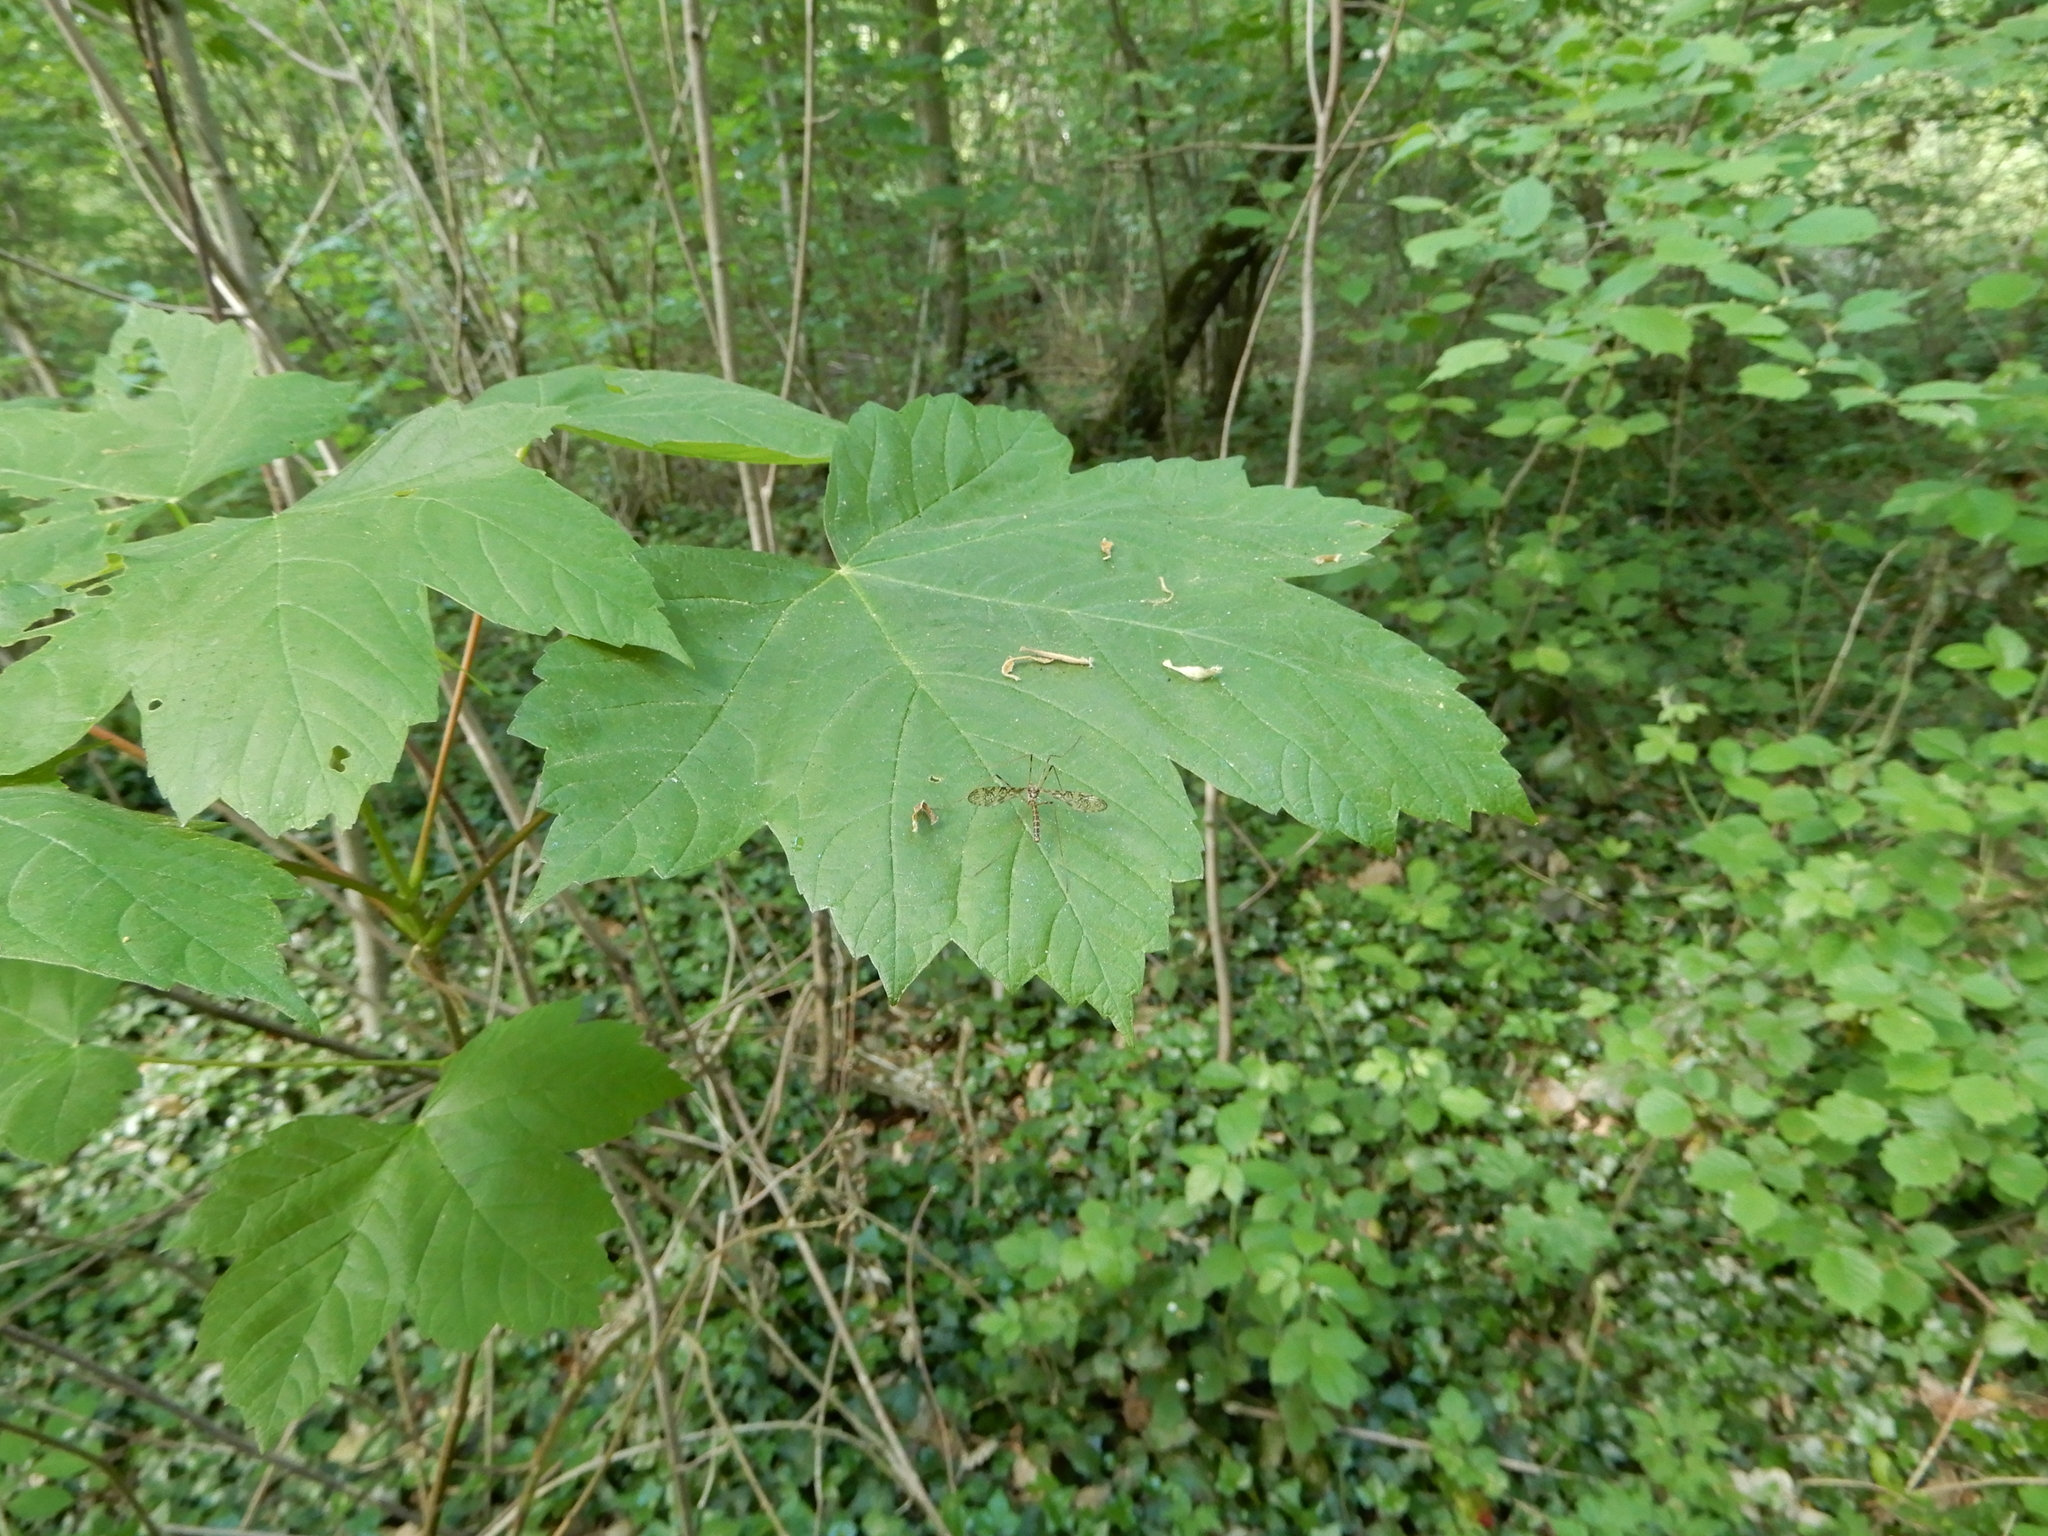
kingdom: Plantae
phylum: Tracheophyta
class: Magnoliopsida
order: Sapindales
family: Sapindaceae
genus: Acer
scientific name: Acer pseudoplatanus
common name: Sycamore
